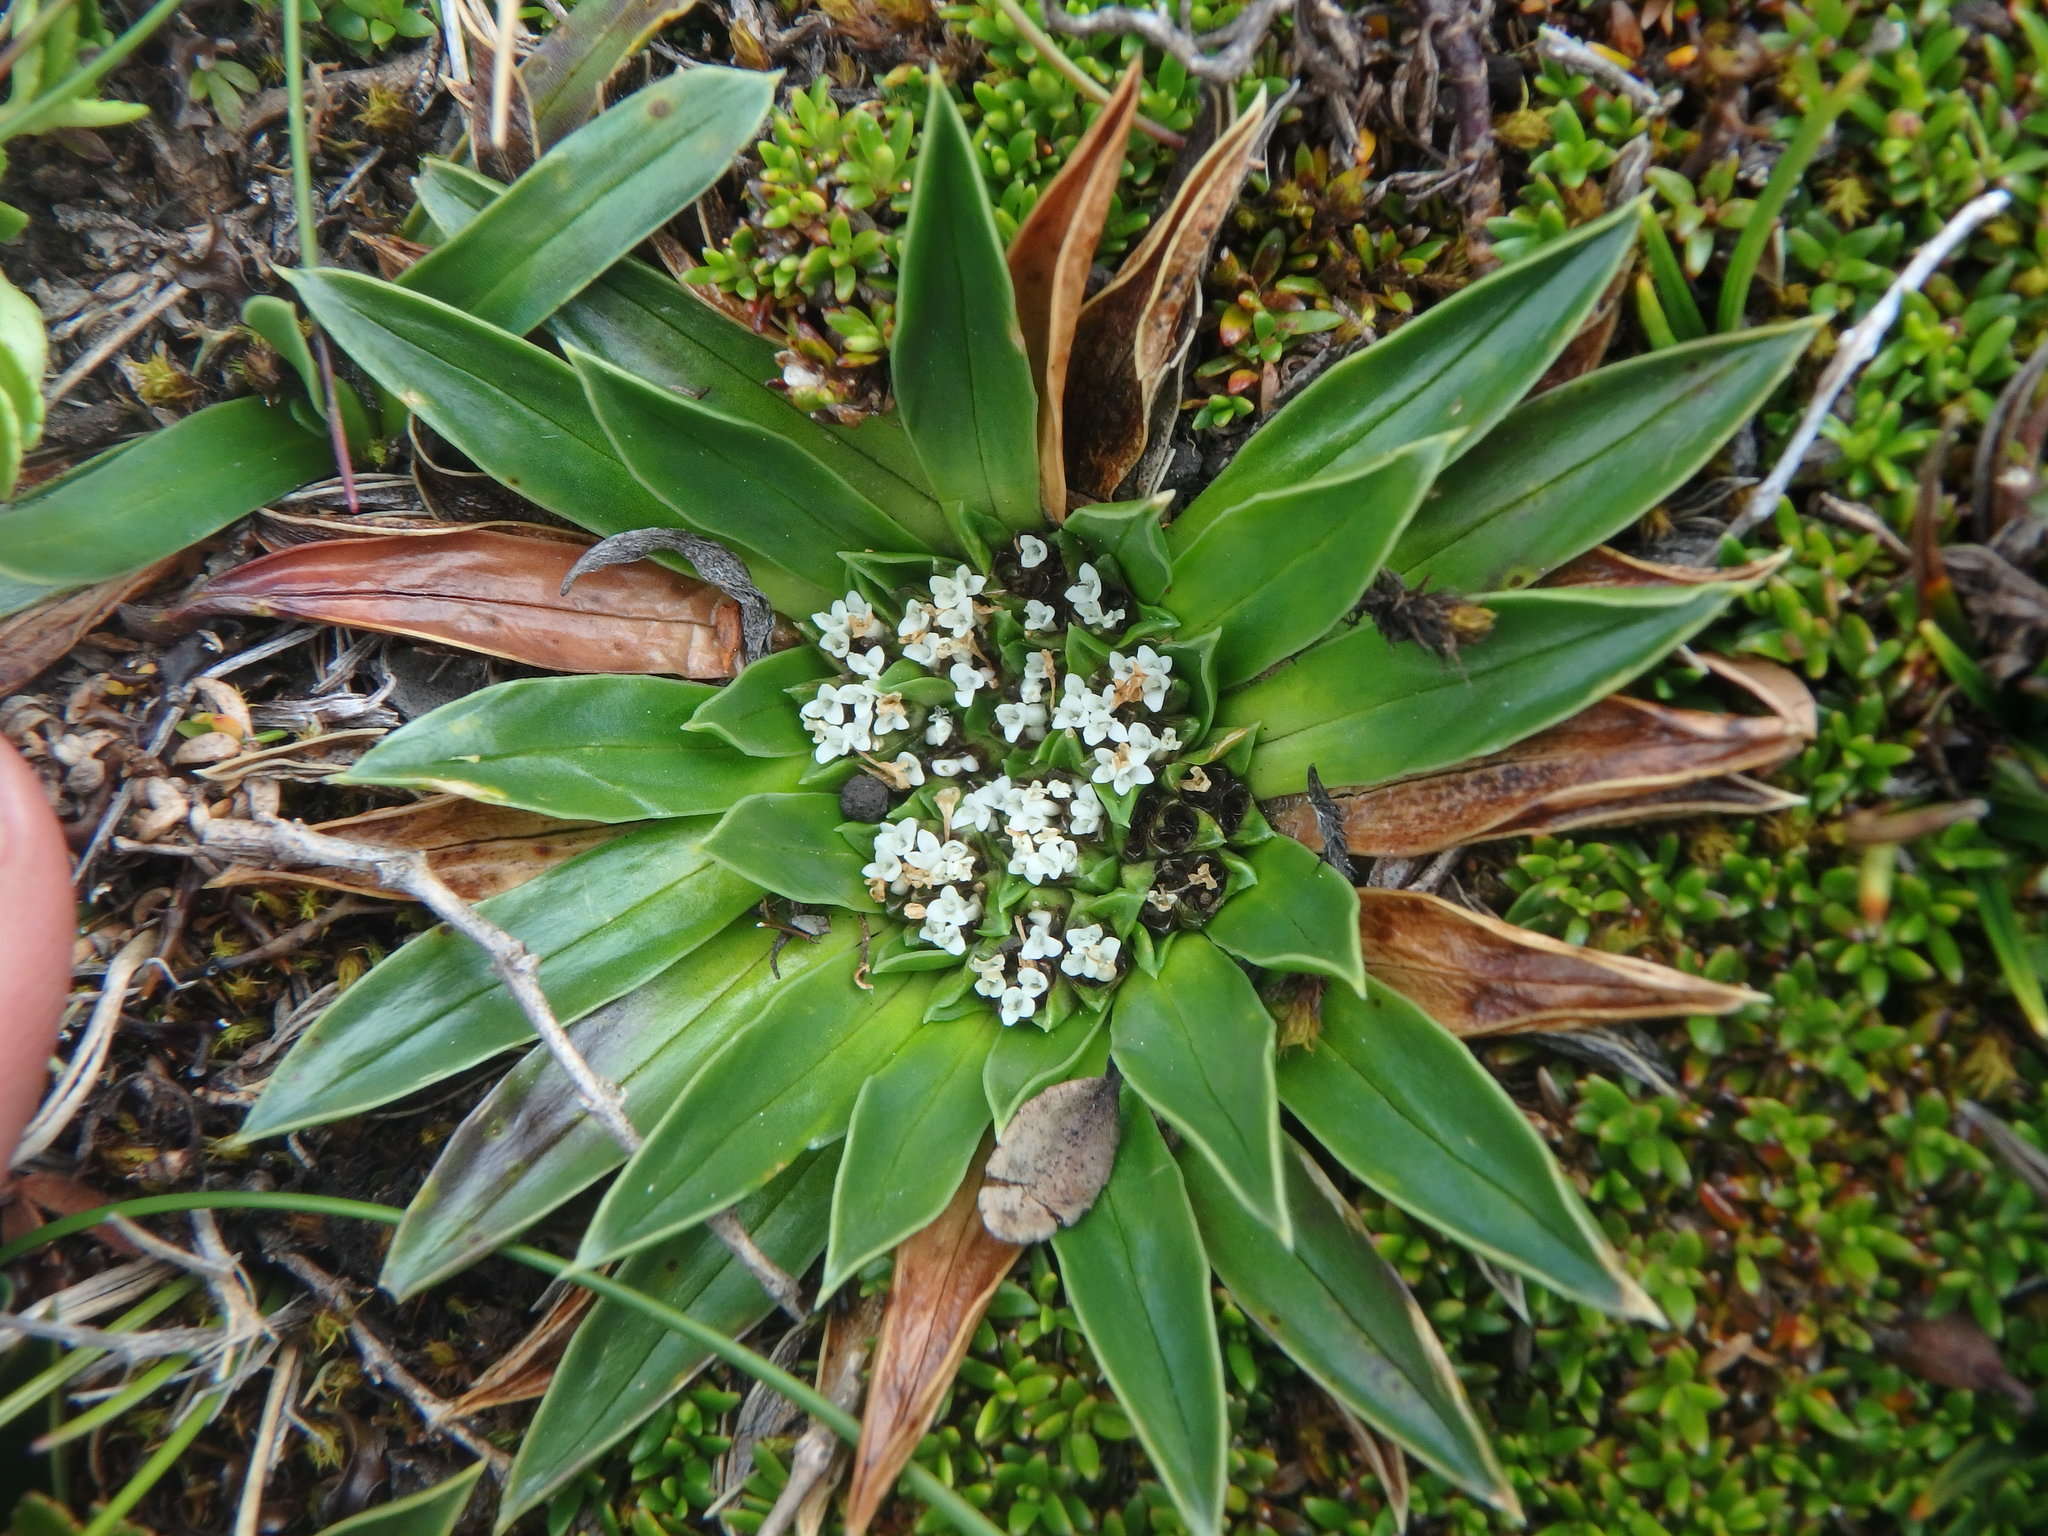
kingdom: Plantae
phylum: Tracheophyta
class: Magnoliopsida
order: Dipsacales
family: Caprifoliaceae
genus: Valeriana
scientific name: Valeriana rigida
